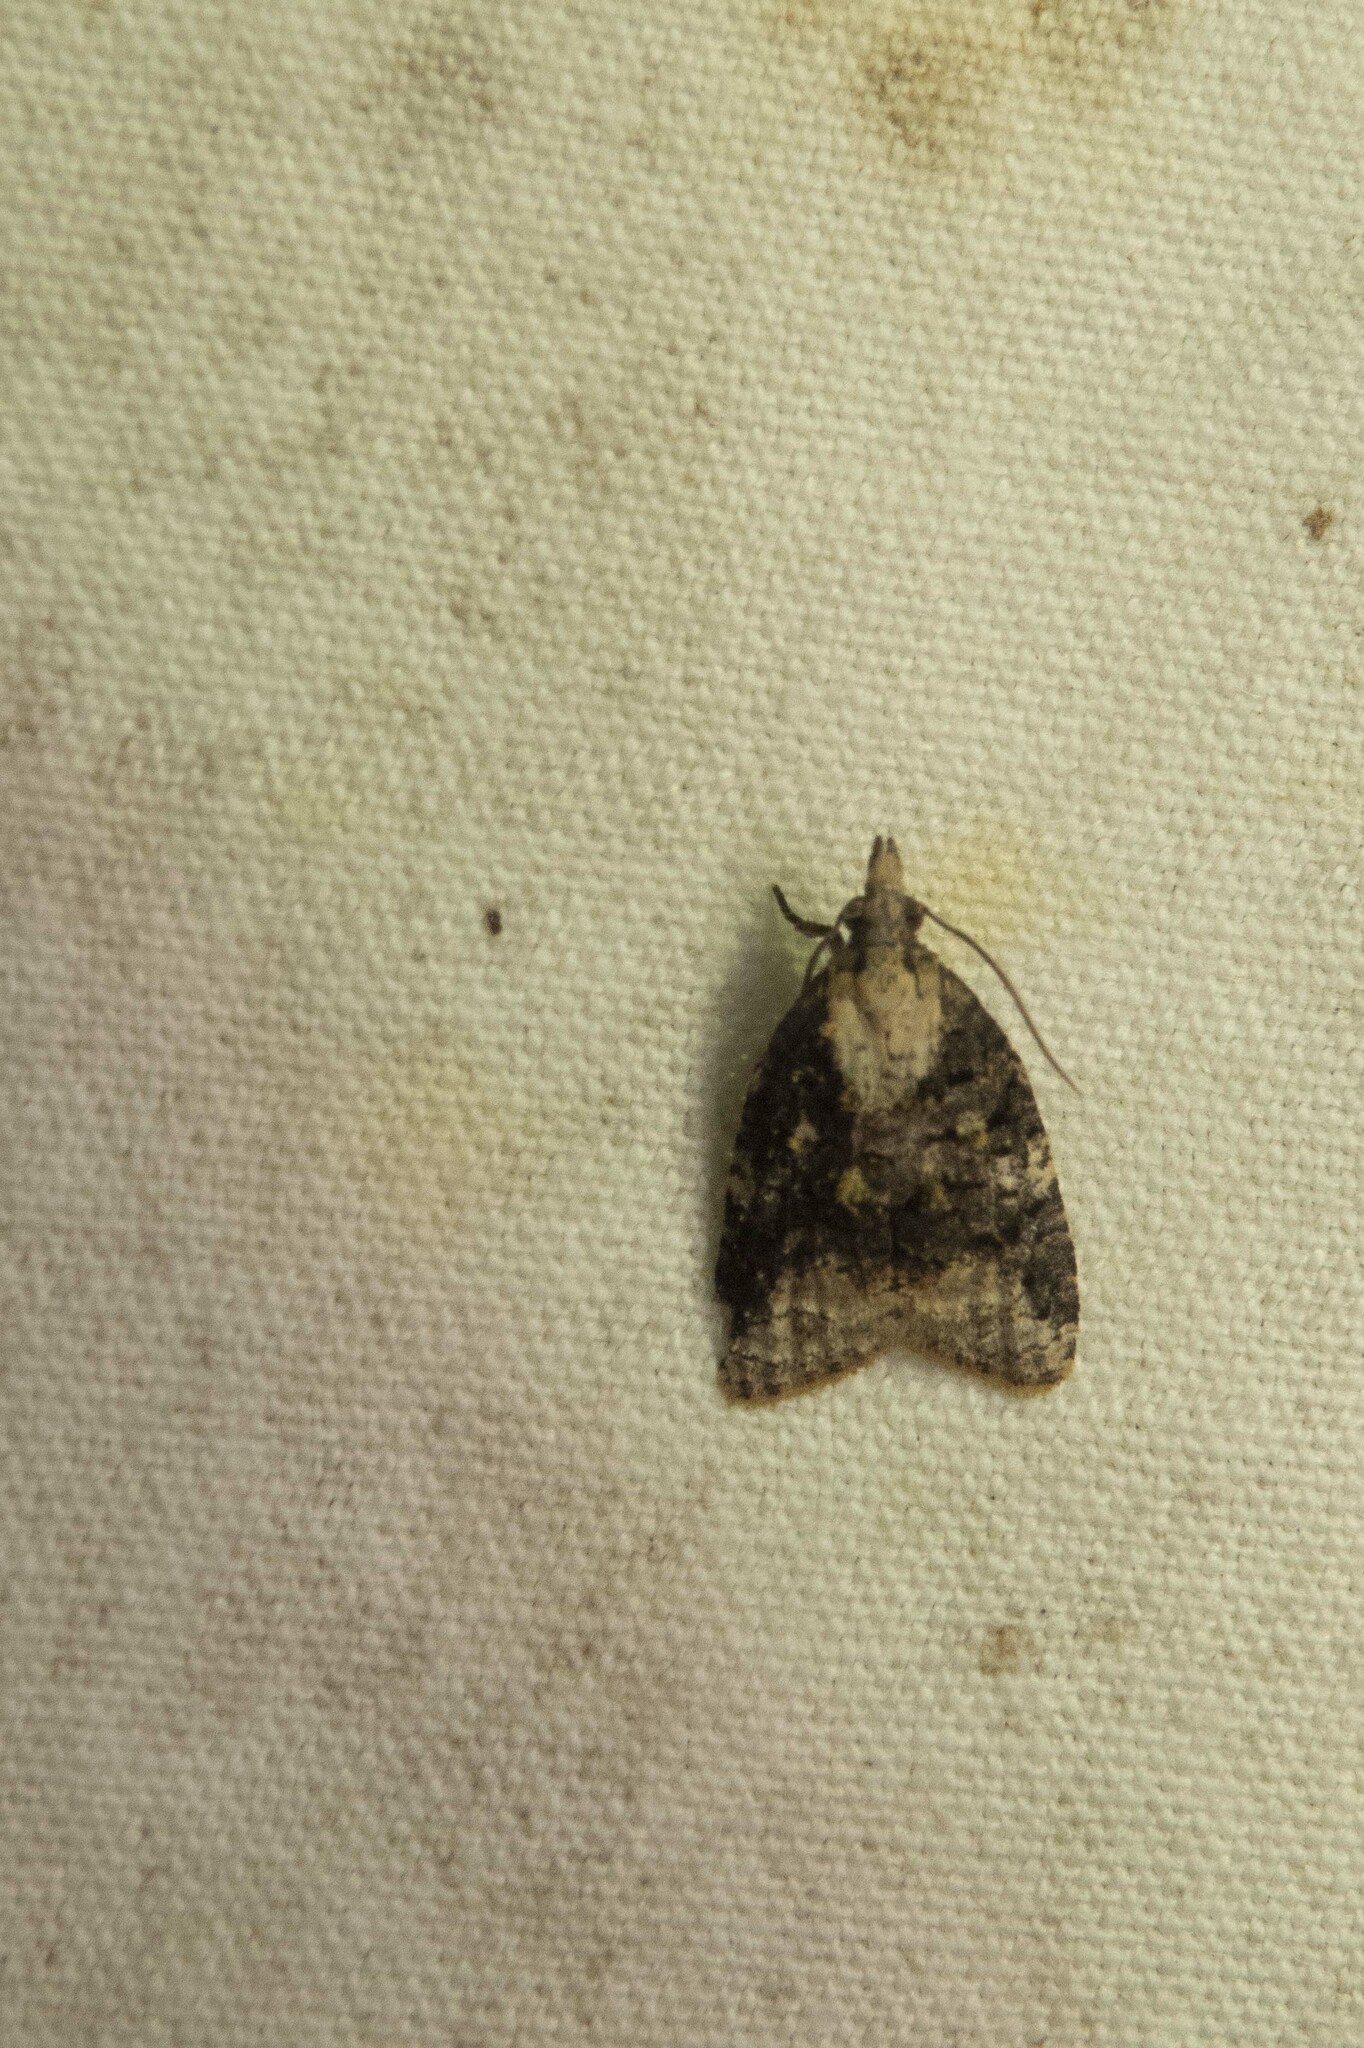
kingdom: Animalia
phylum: Arthropoda
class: Insecta
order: Lepidoptera
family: Tortricidae
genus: Platynota
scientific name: Platynota exasperatana
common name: Exasperating platynota moth
